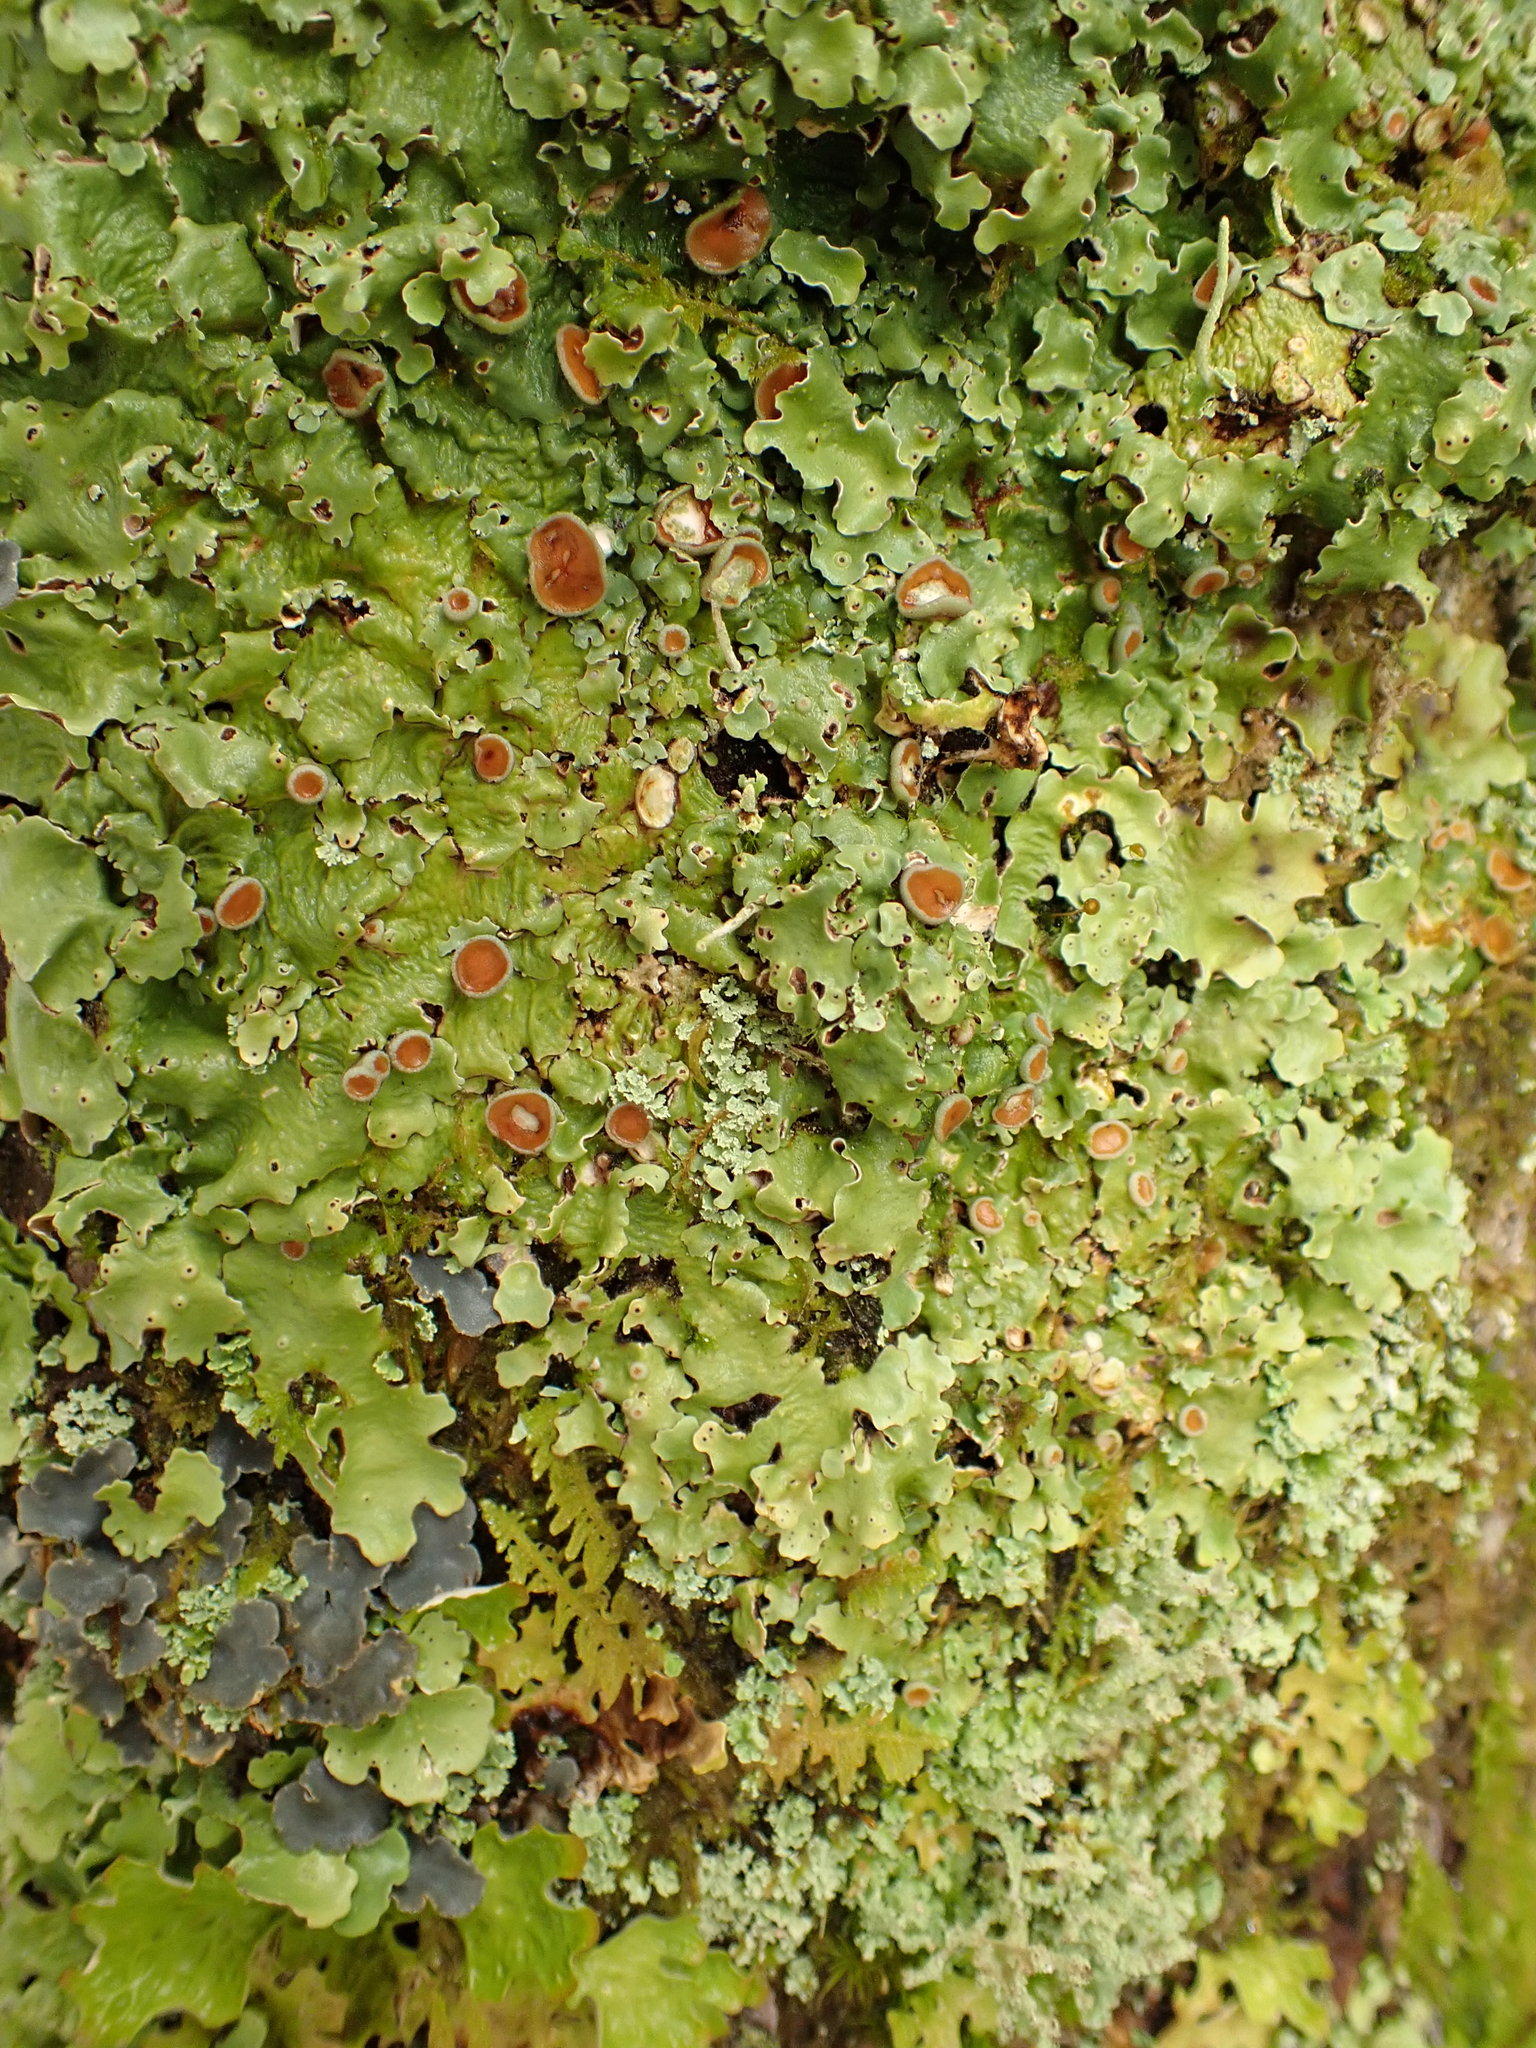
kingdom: Fungi
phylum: Ascomycota
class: Lecanoromycetes
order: Peltigerales
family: Lobariaceae
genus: Ricasolia
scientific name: Ricasolia quercizans
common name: Smooth lungwort
